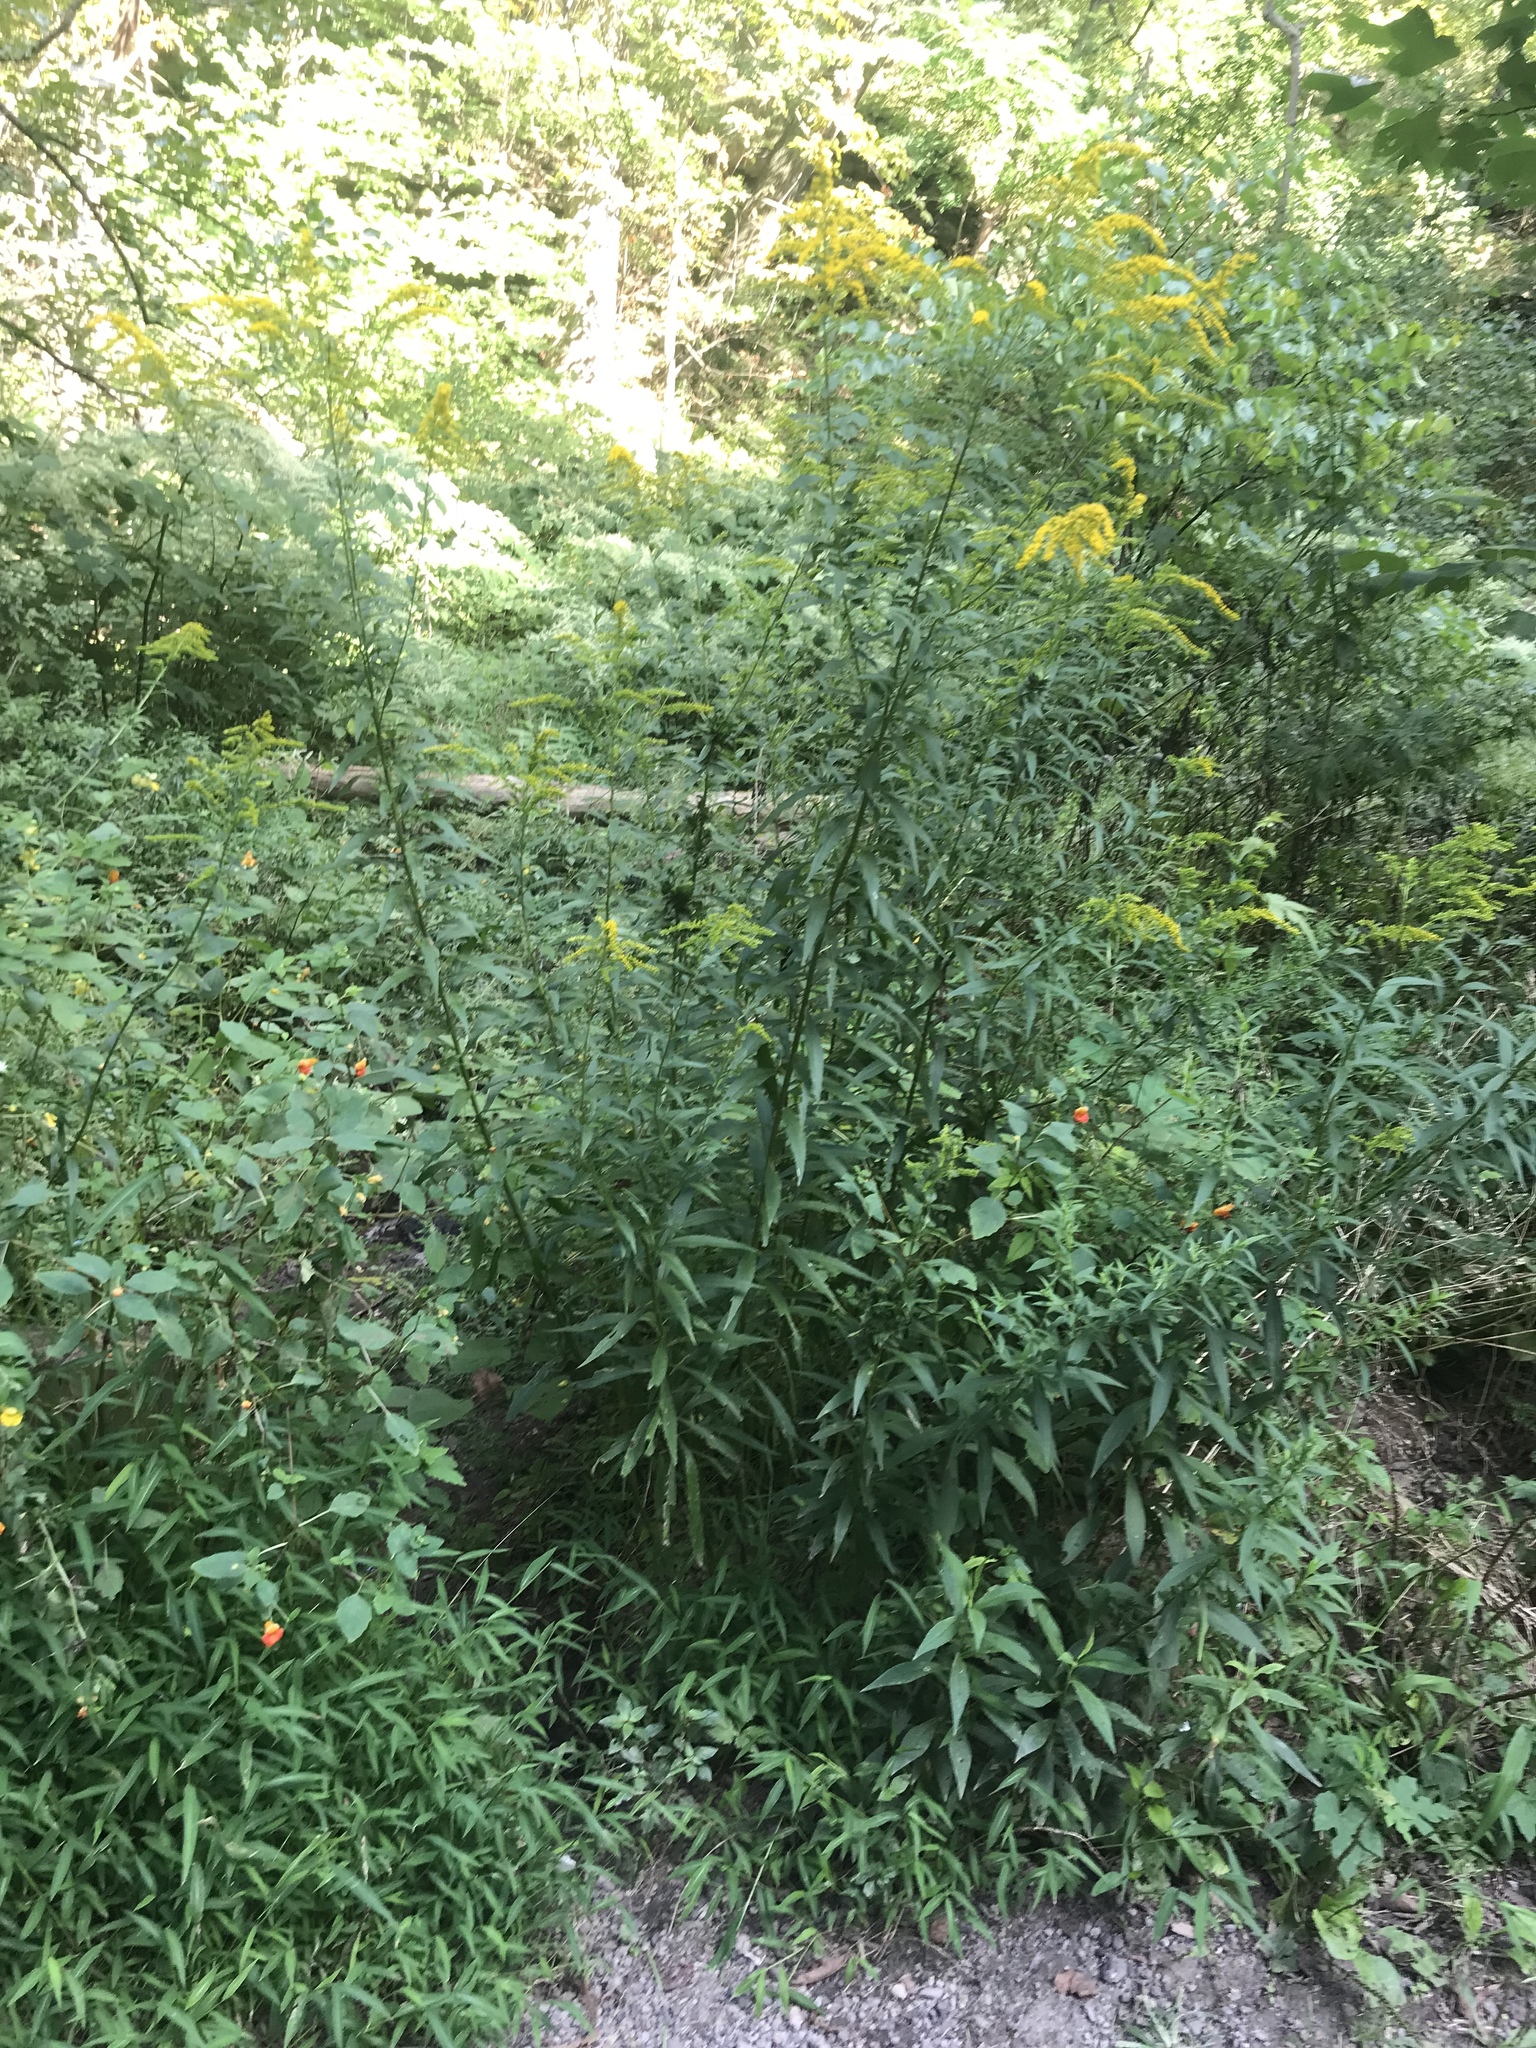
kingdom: Plantae
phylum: Tracheophyta
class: Magnoliopsida
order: Asterales
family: Asteraceae
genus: Solidago
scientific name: Solidago canadensis
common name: Canada goldenrod
